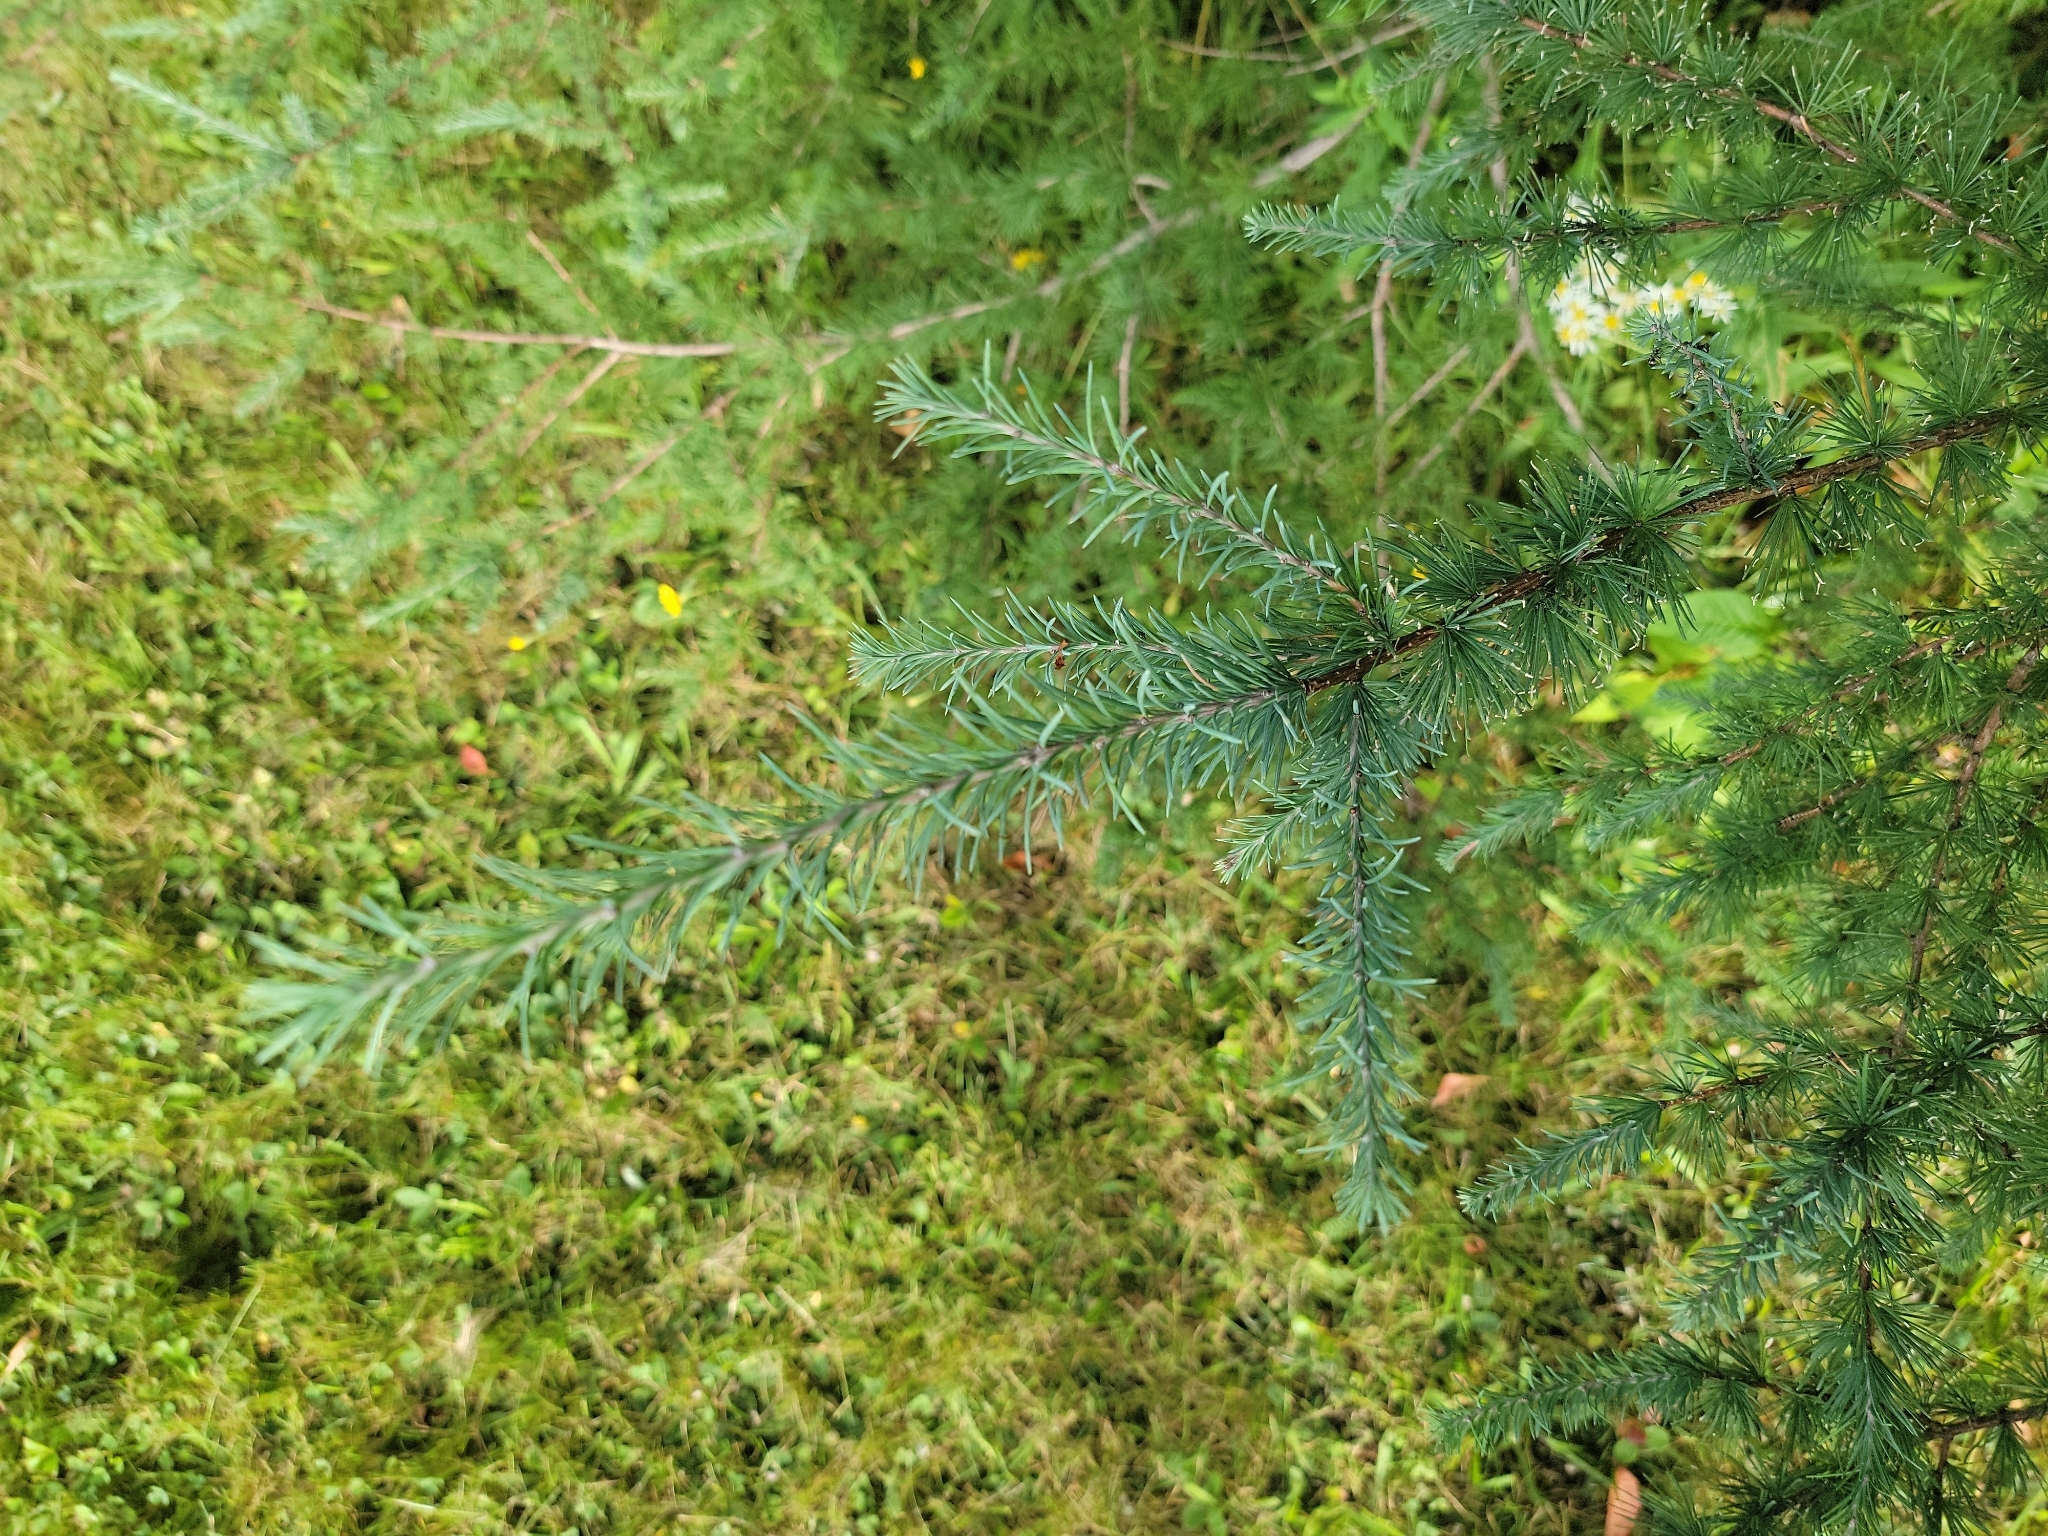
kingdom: Plantae
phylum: Tracheophyta
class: Pinopsida
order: Pinales
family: Pinaceae
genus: Larix
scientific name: Larix laricina
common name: American larch
